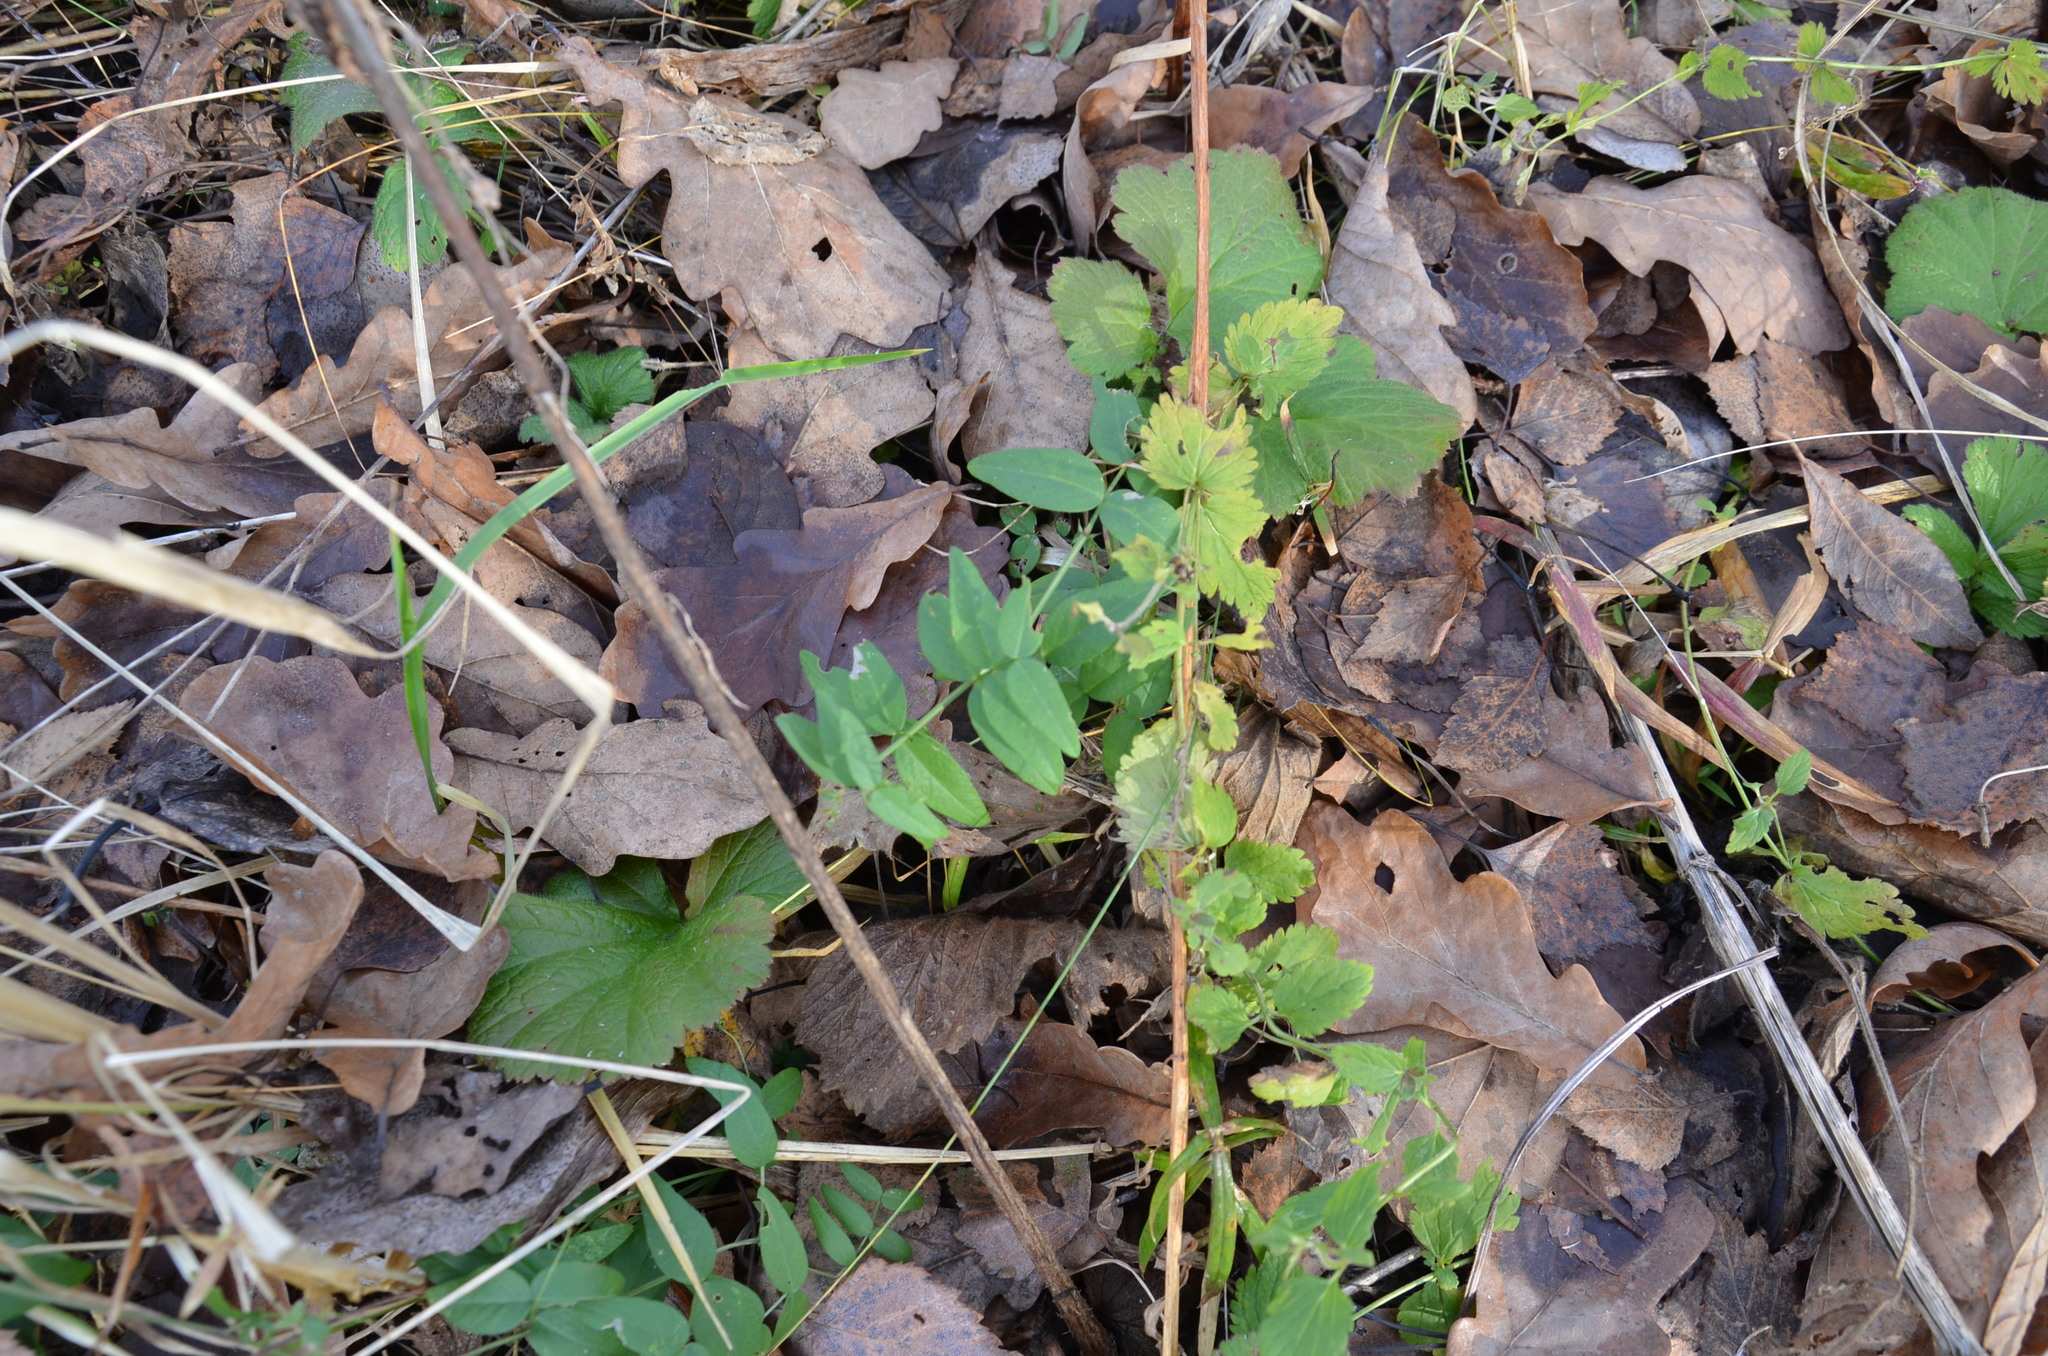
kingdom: Plantae
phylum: Tracheophyta
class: Magnoliopsida
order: Fabales
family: Fabaceae
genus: Vicia
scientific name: Vicia sepium
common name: Bush vetch
